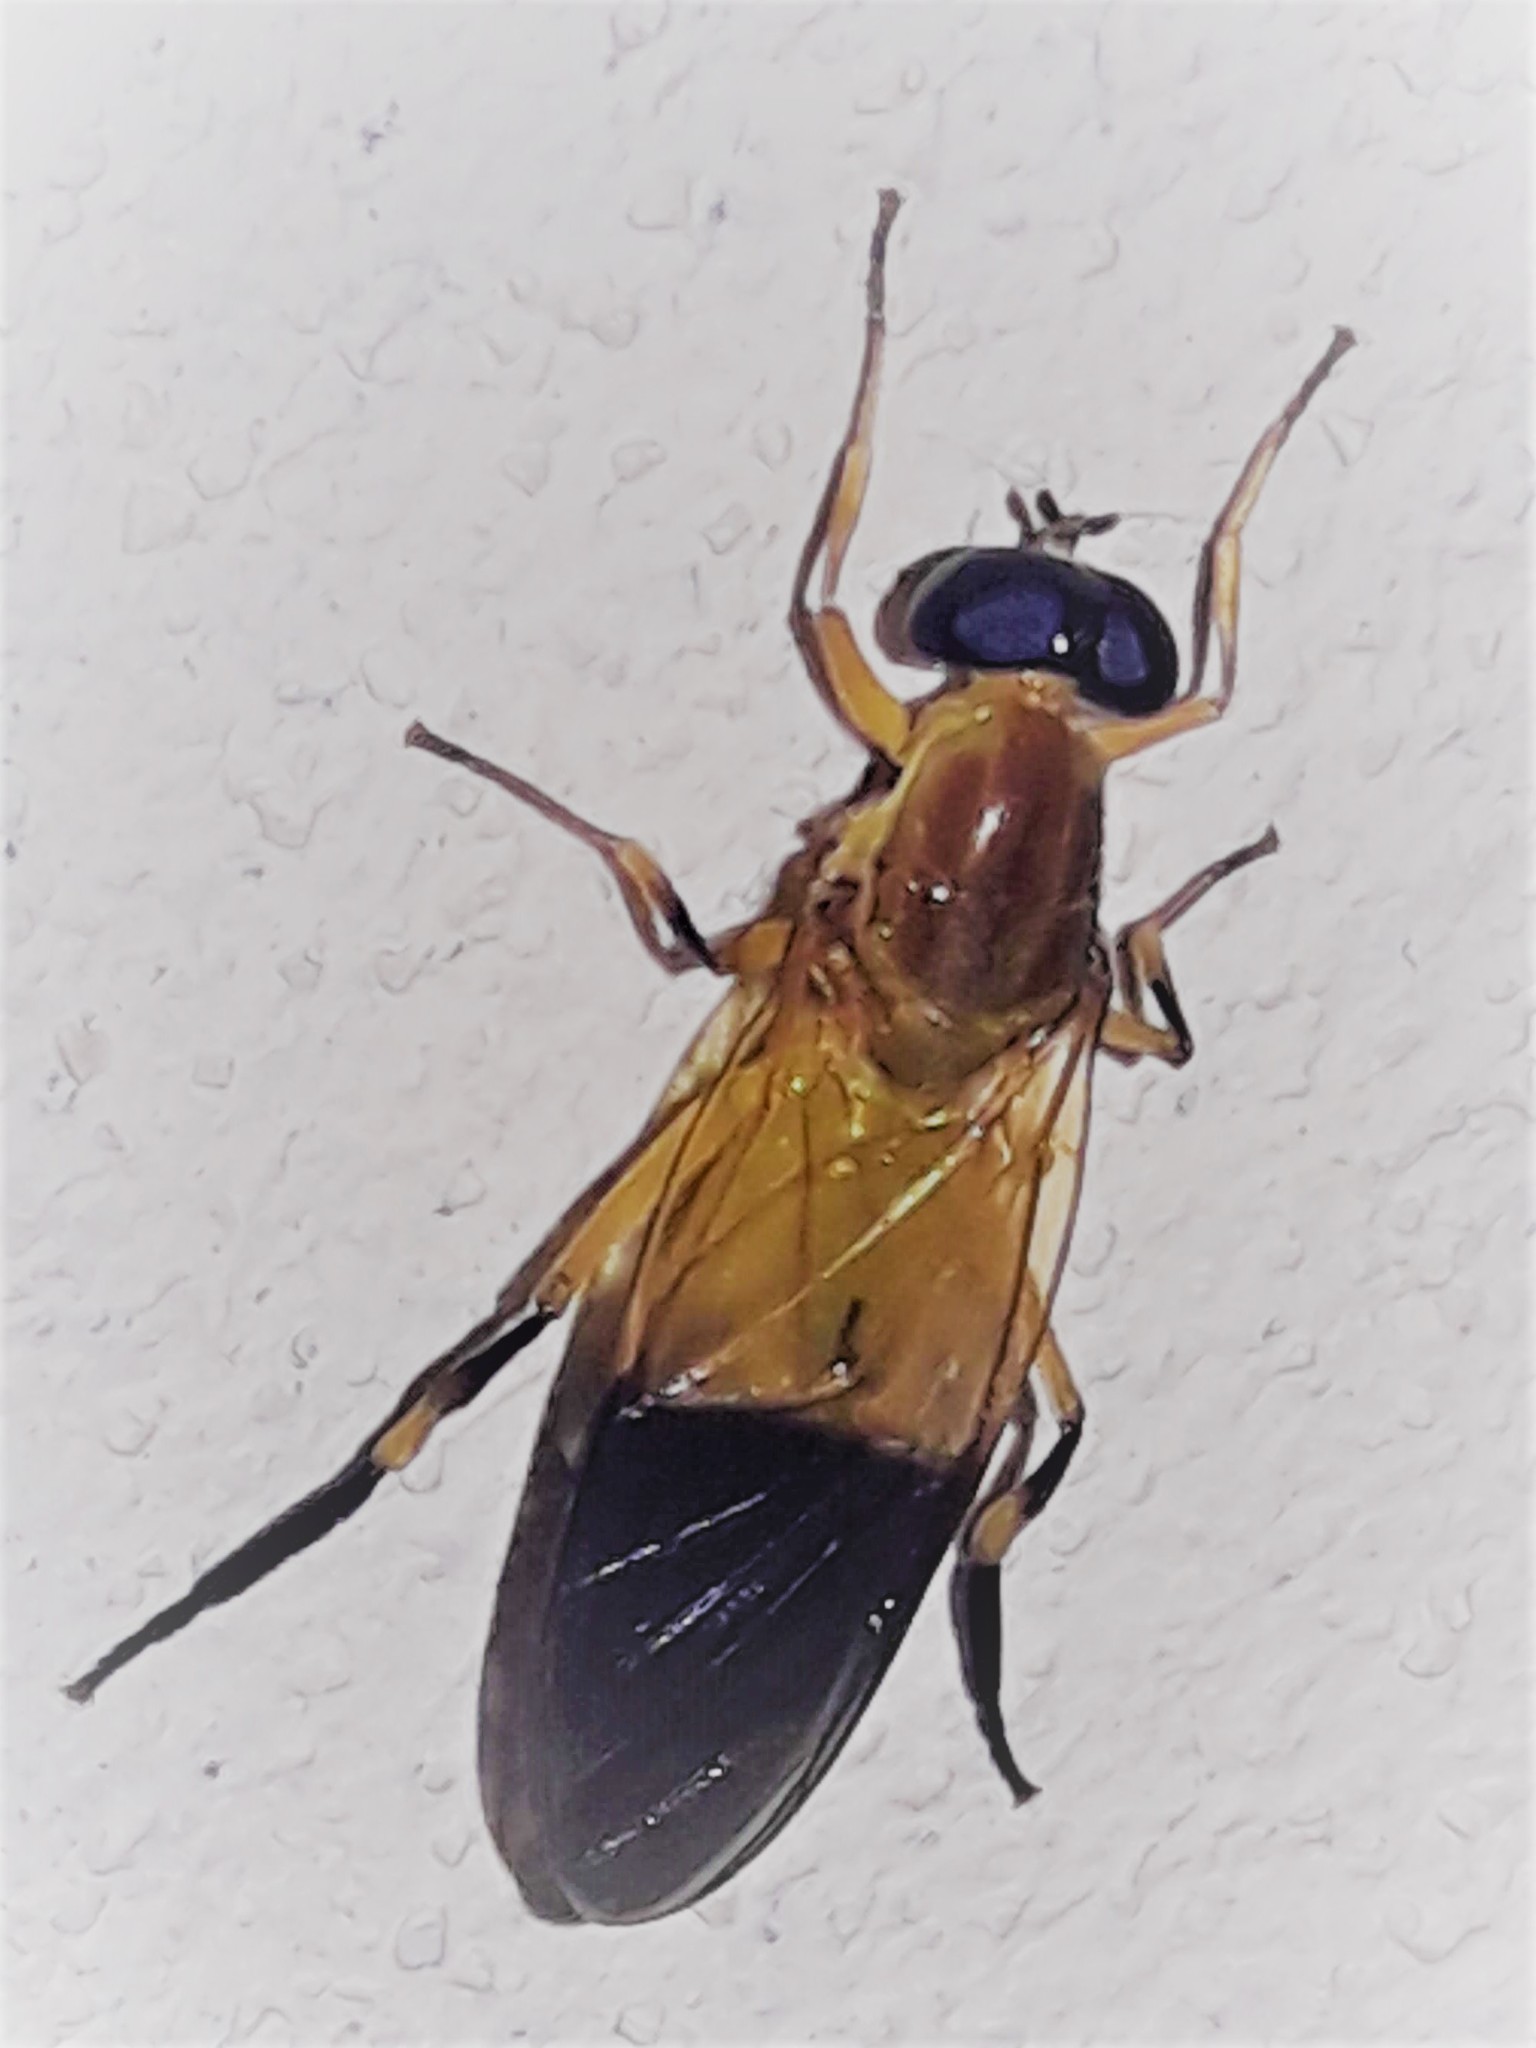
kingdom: Animalia
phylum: Arthropoda
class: Insecta
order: Diptera
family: Stratiomyidae
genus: Sargus
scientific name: Sargus analis
